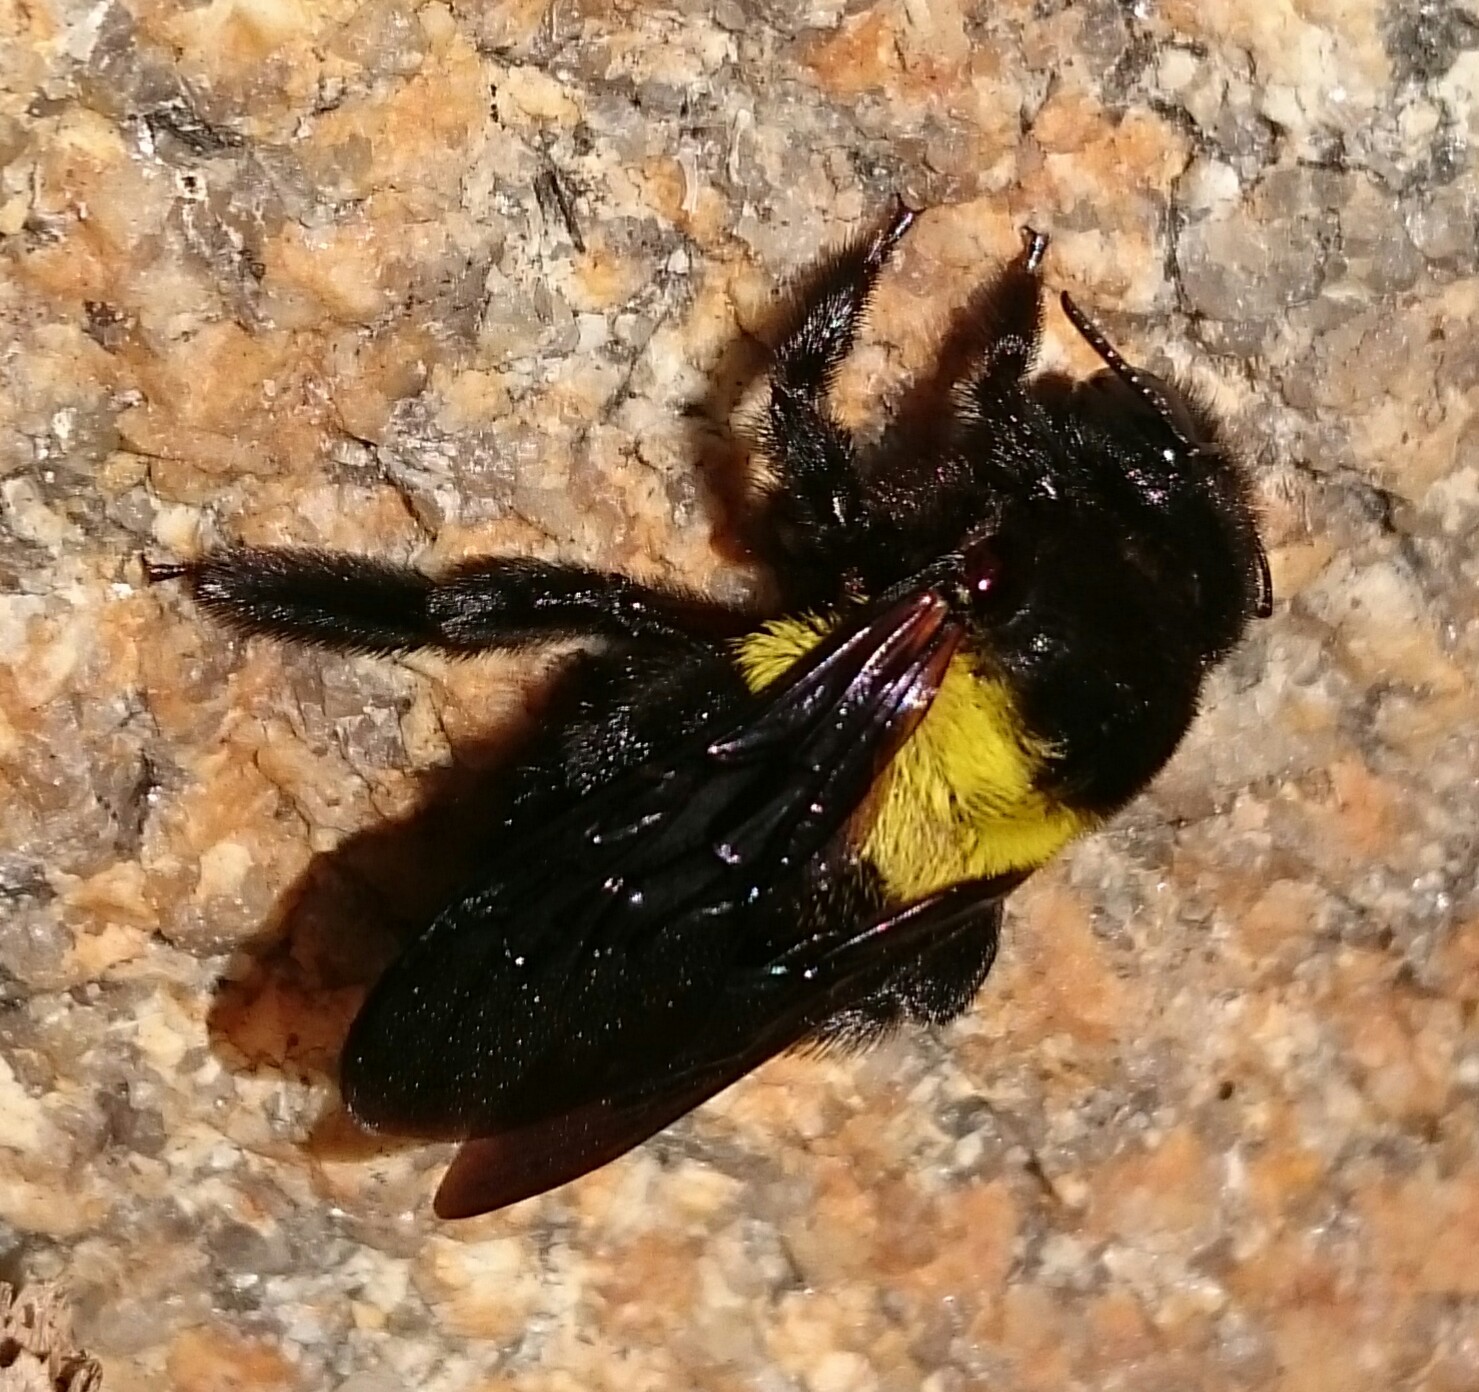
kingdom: Animalia
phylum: Arthropoda
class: Insecta
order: Hymenoptera
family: Apidae
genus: Xylocopa
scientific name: Xylocopa caffra
